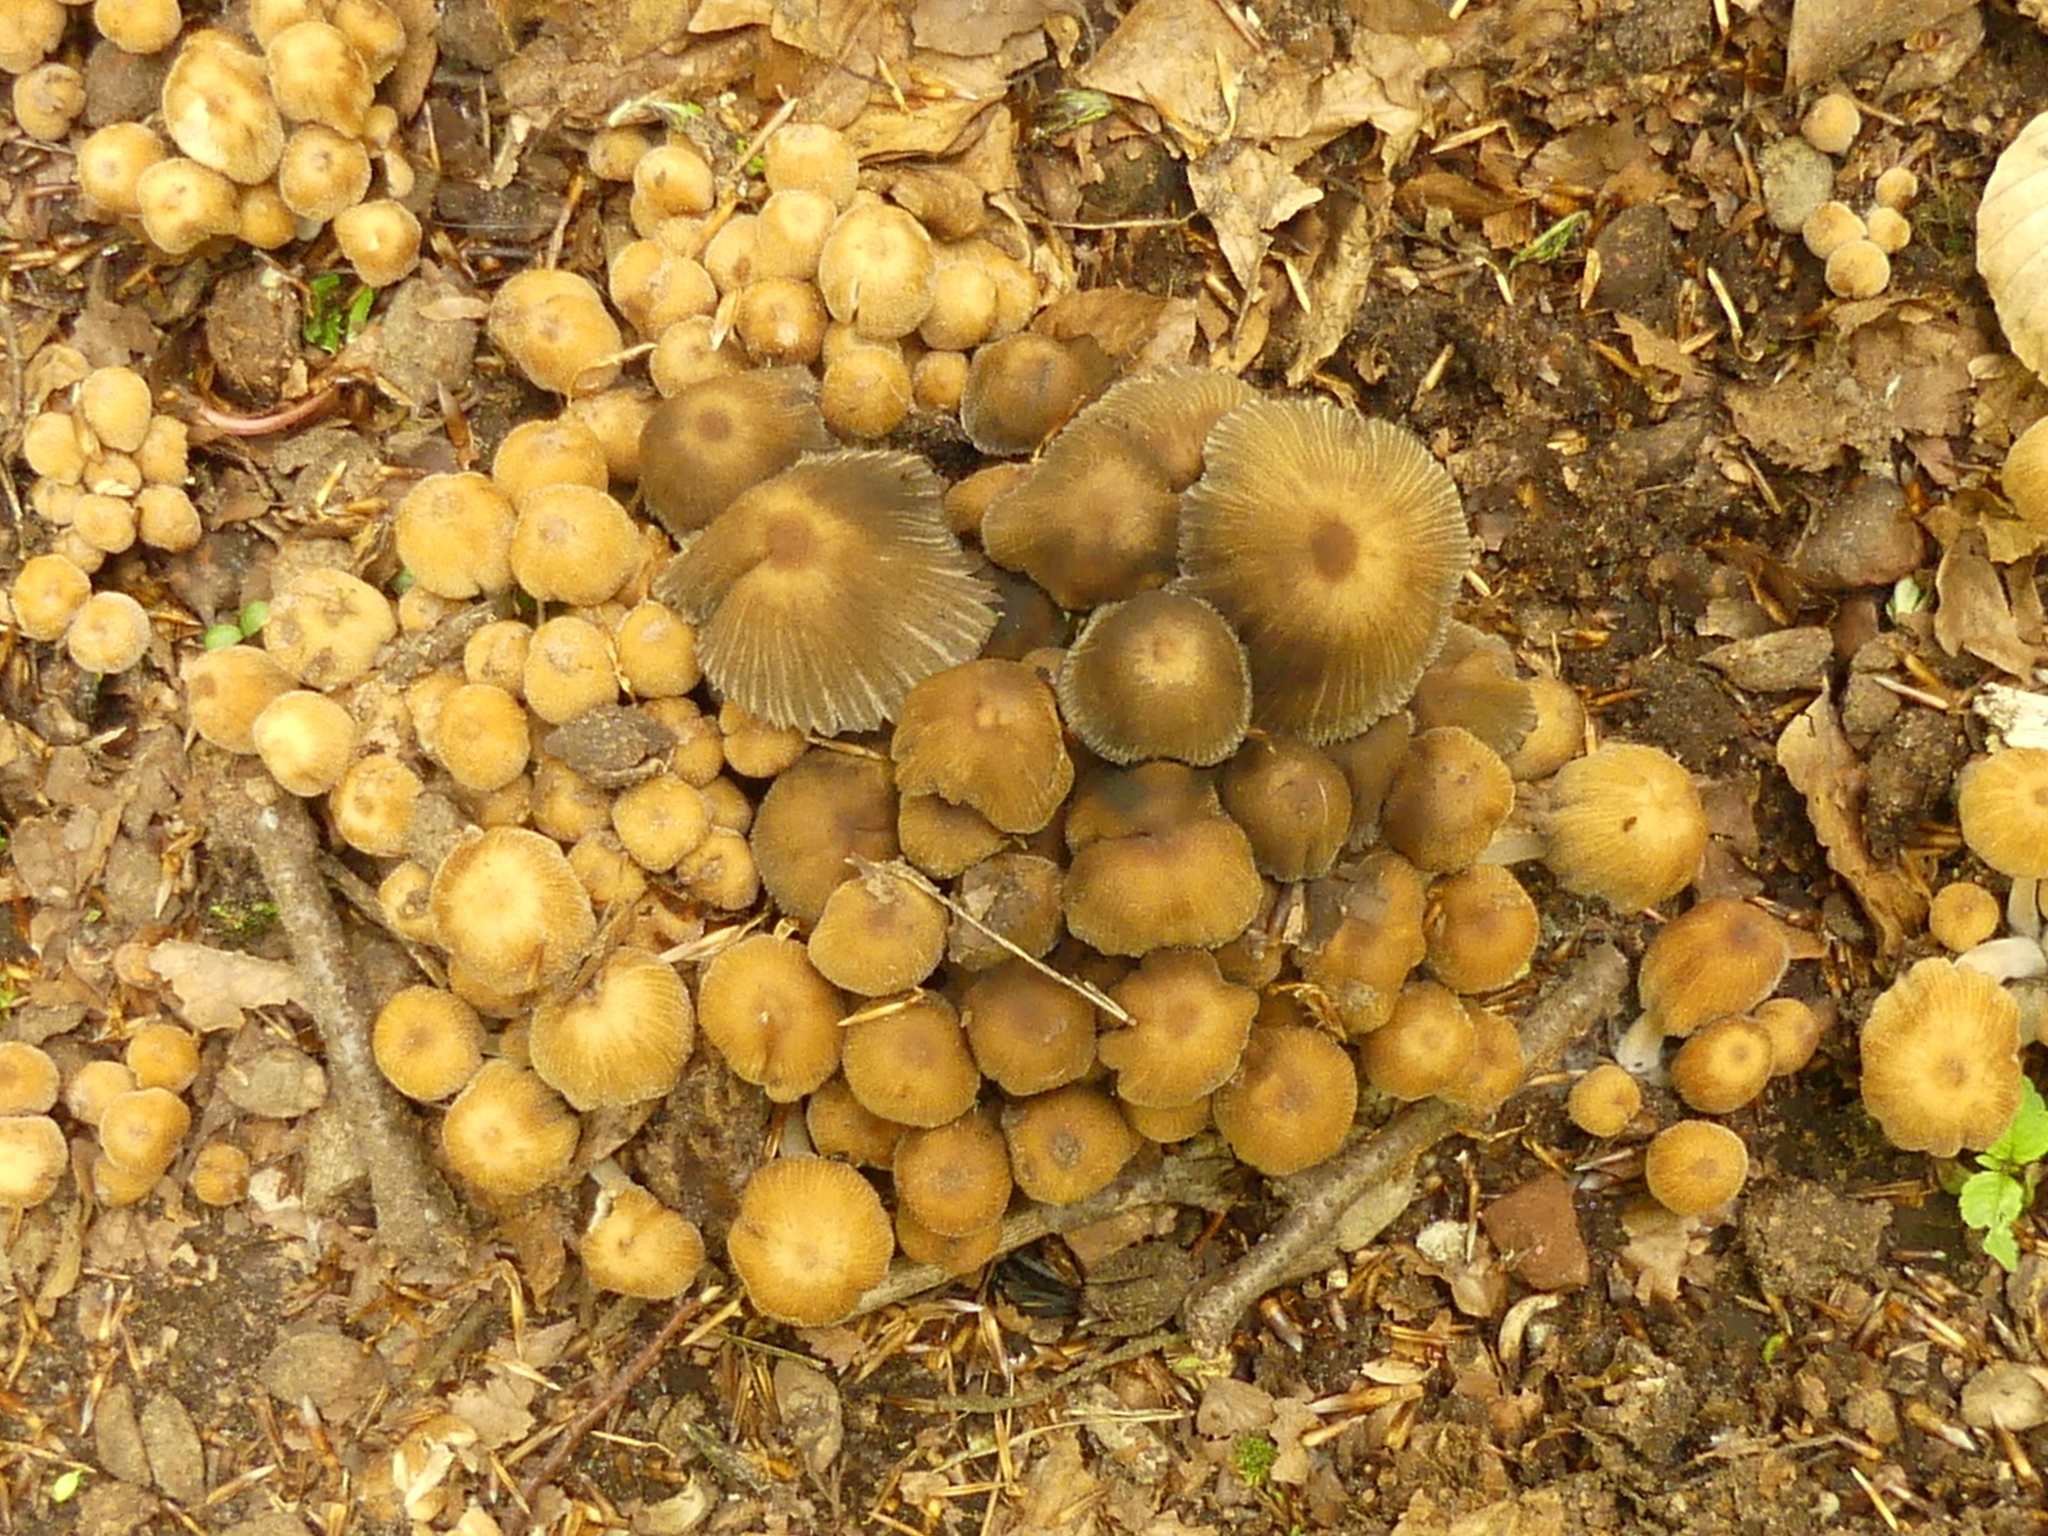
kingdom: Fungi
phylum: Basidiomycota
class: Agaricomycetes
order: Agaricales
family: Psathyrellaceae
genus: Coprinellus
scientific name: Coprinellus micaceus
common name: Glistening ink-cap
